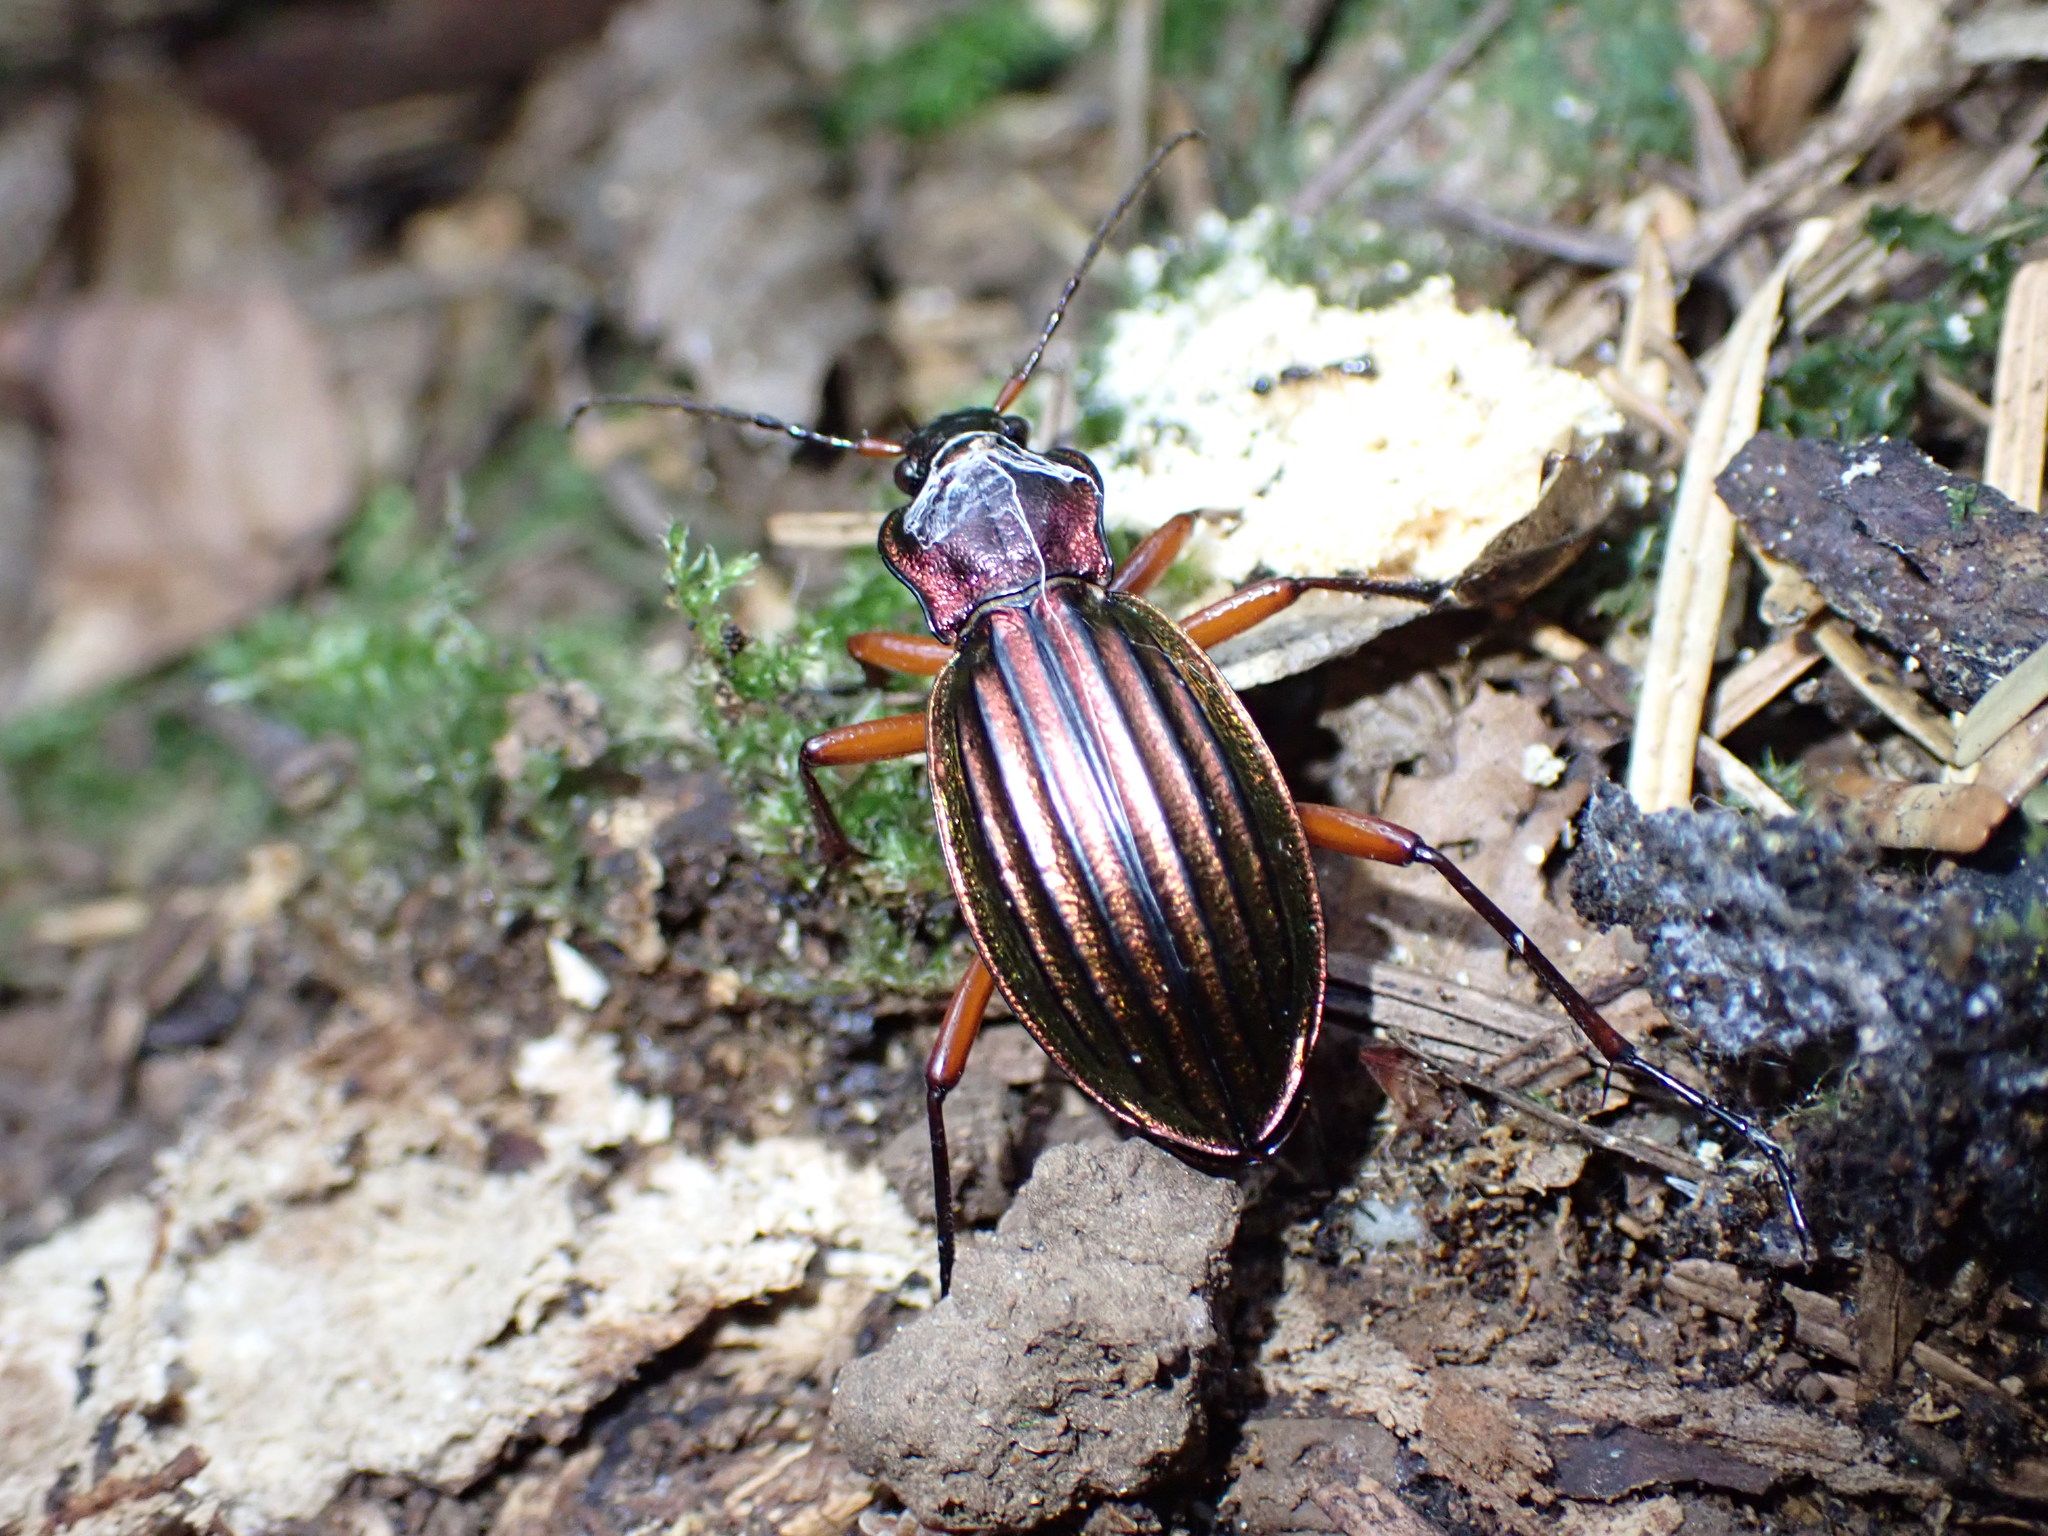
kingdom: Animalia
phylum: Arthropoda
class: Insecta
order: Coleoptera
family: Carabidae
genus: Carabus
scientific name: Carabus auronitens
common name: Carabus auronitens
